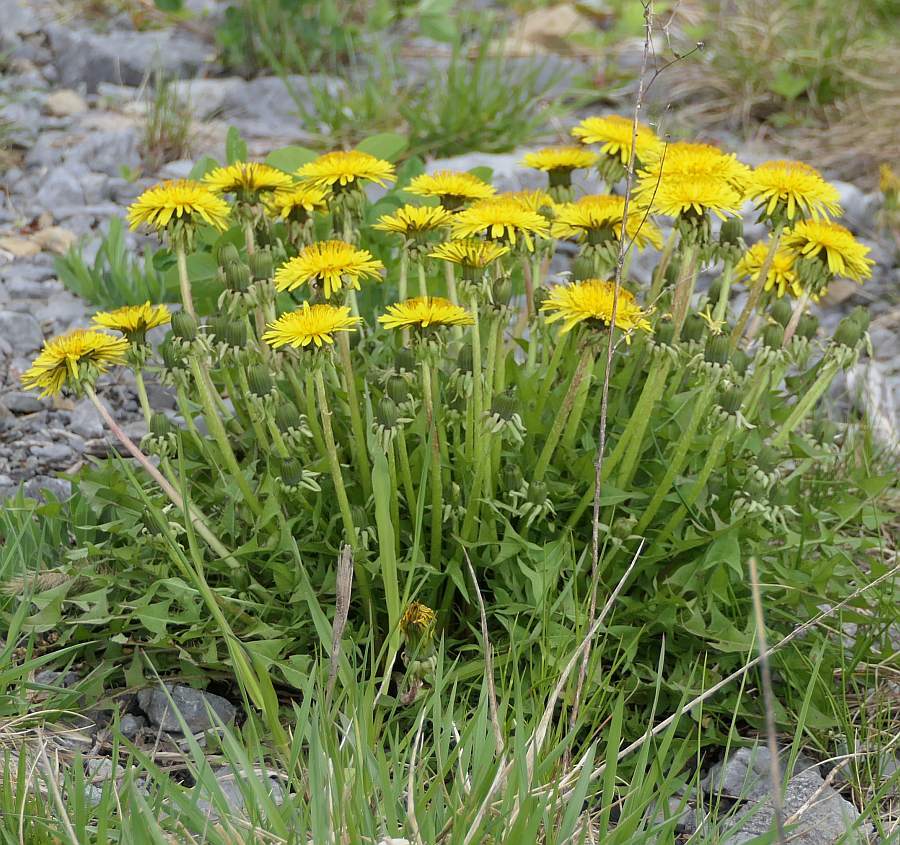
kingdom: Plantae
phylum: Tracheophyta
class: Magnoliopsida
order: Asterales
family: Asteraceae
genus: Taraxacum
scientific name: Taraxacum officinale
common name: Common dandelion
